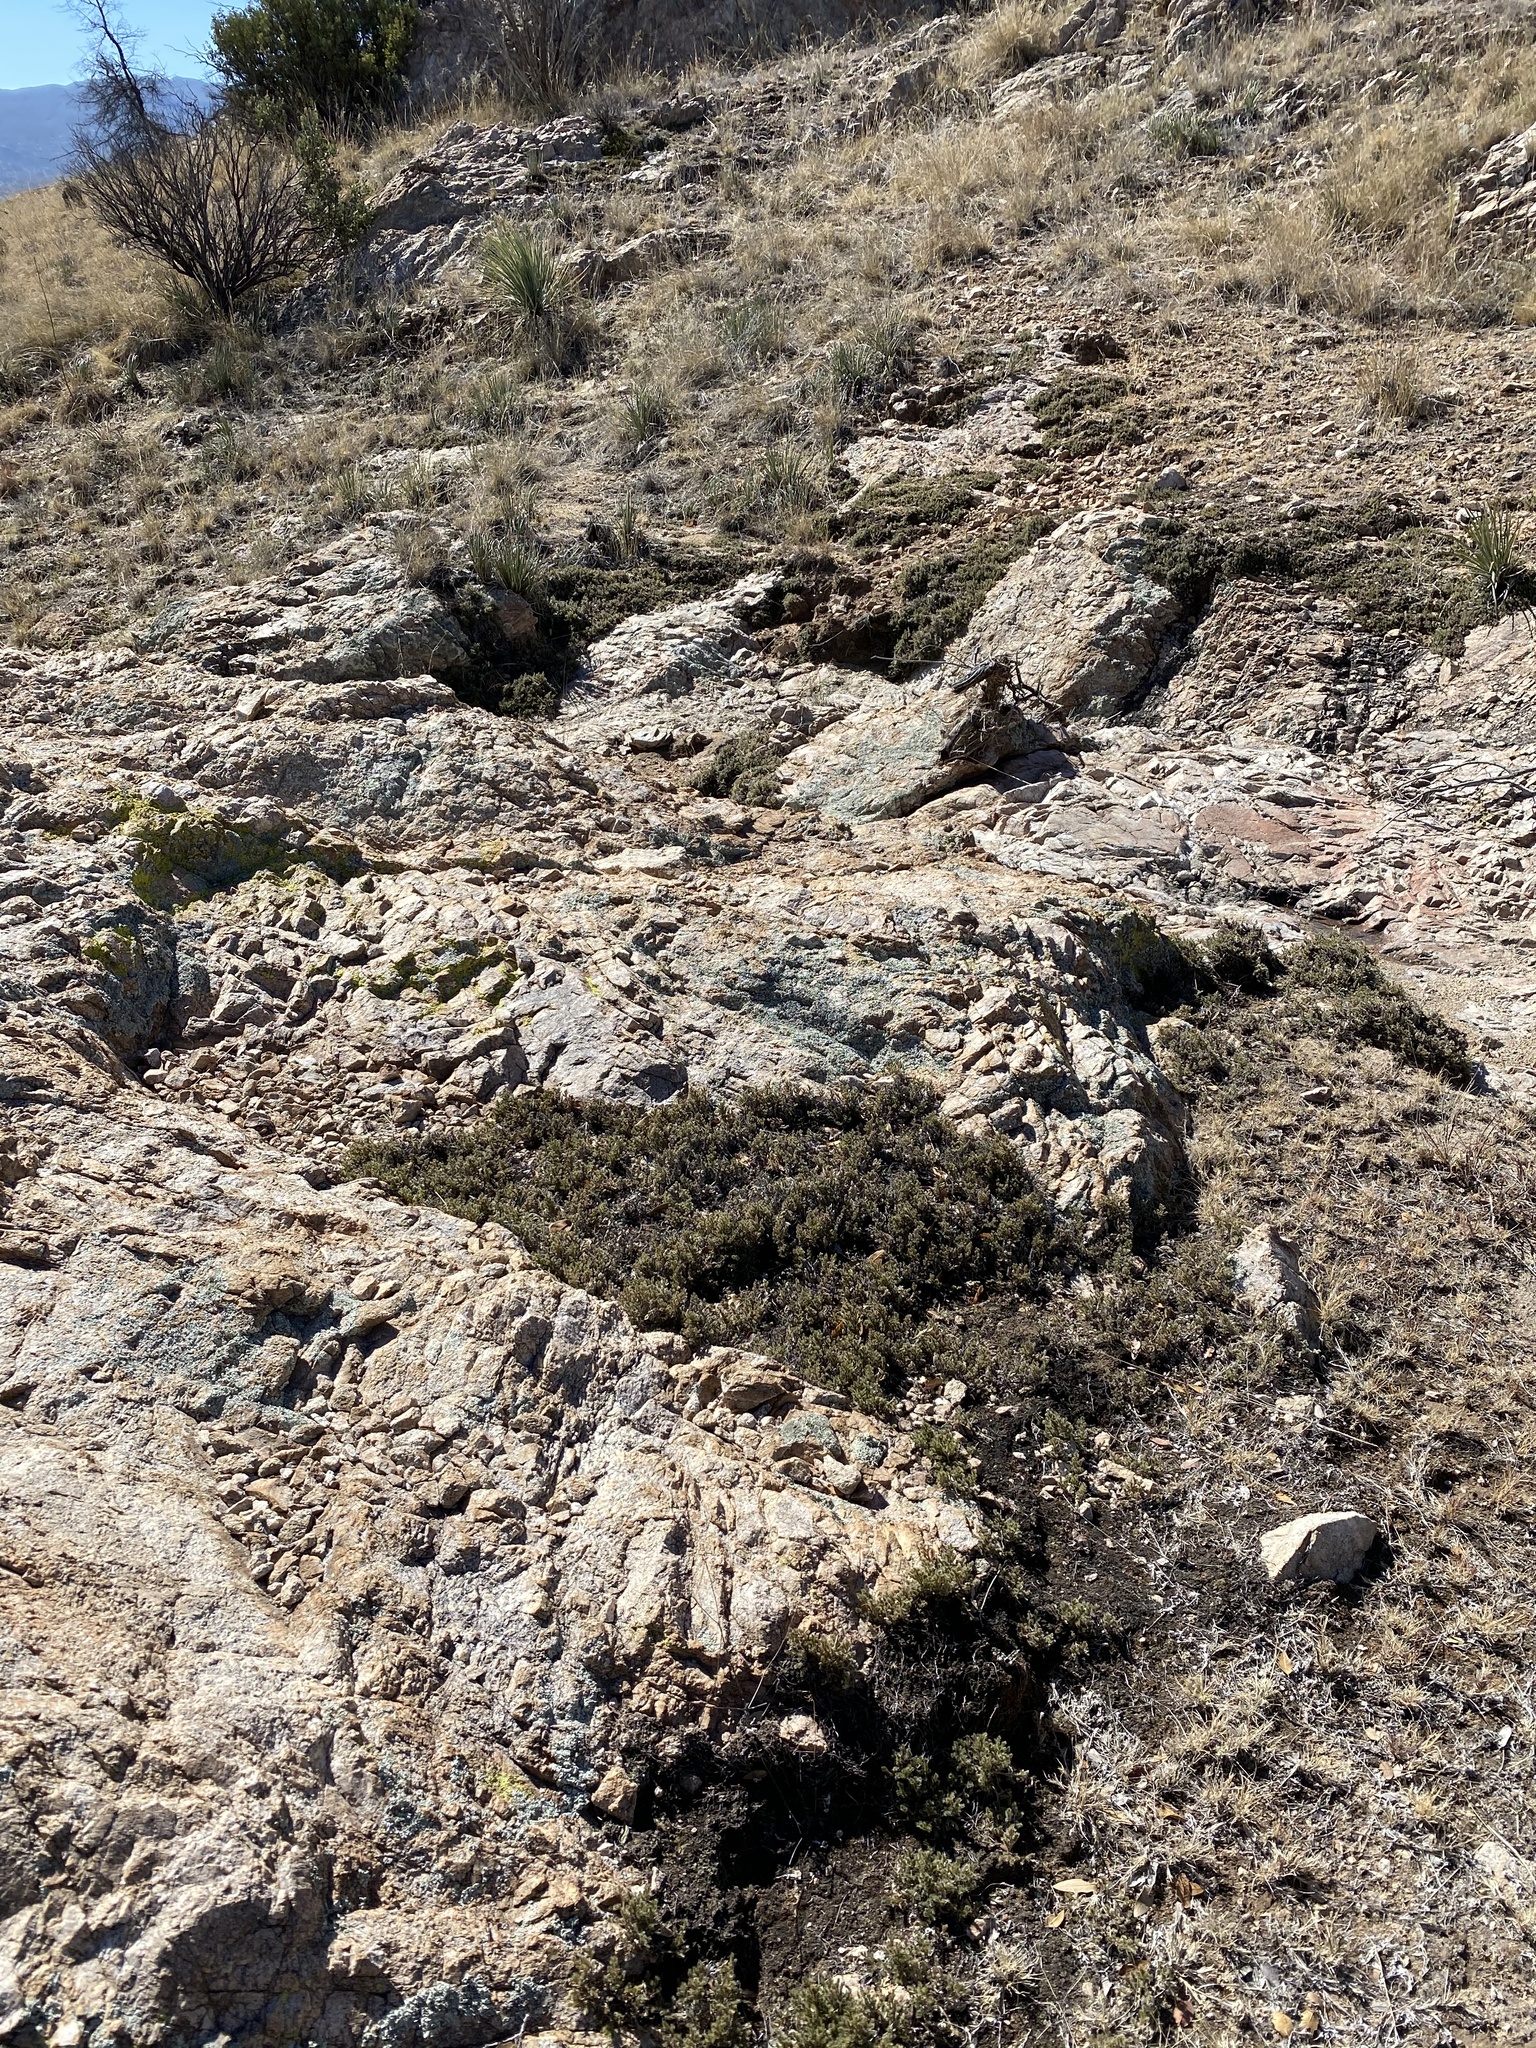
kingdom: Plantae
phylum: Tracheophyta
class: Lycopodiopsida
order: Selaginellales
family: Selaginellaceae
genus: Selaginella
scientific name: Selaginella rupincola
